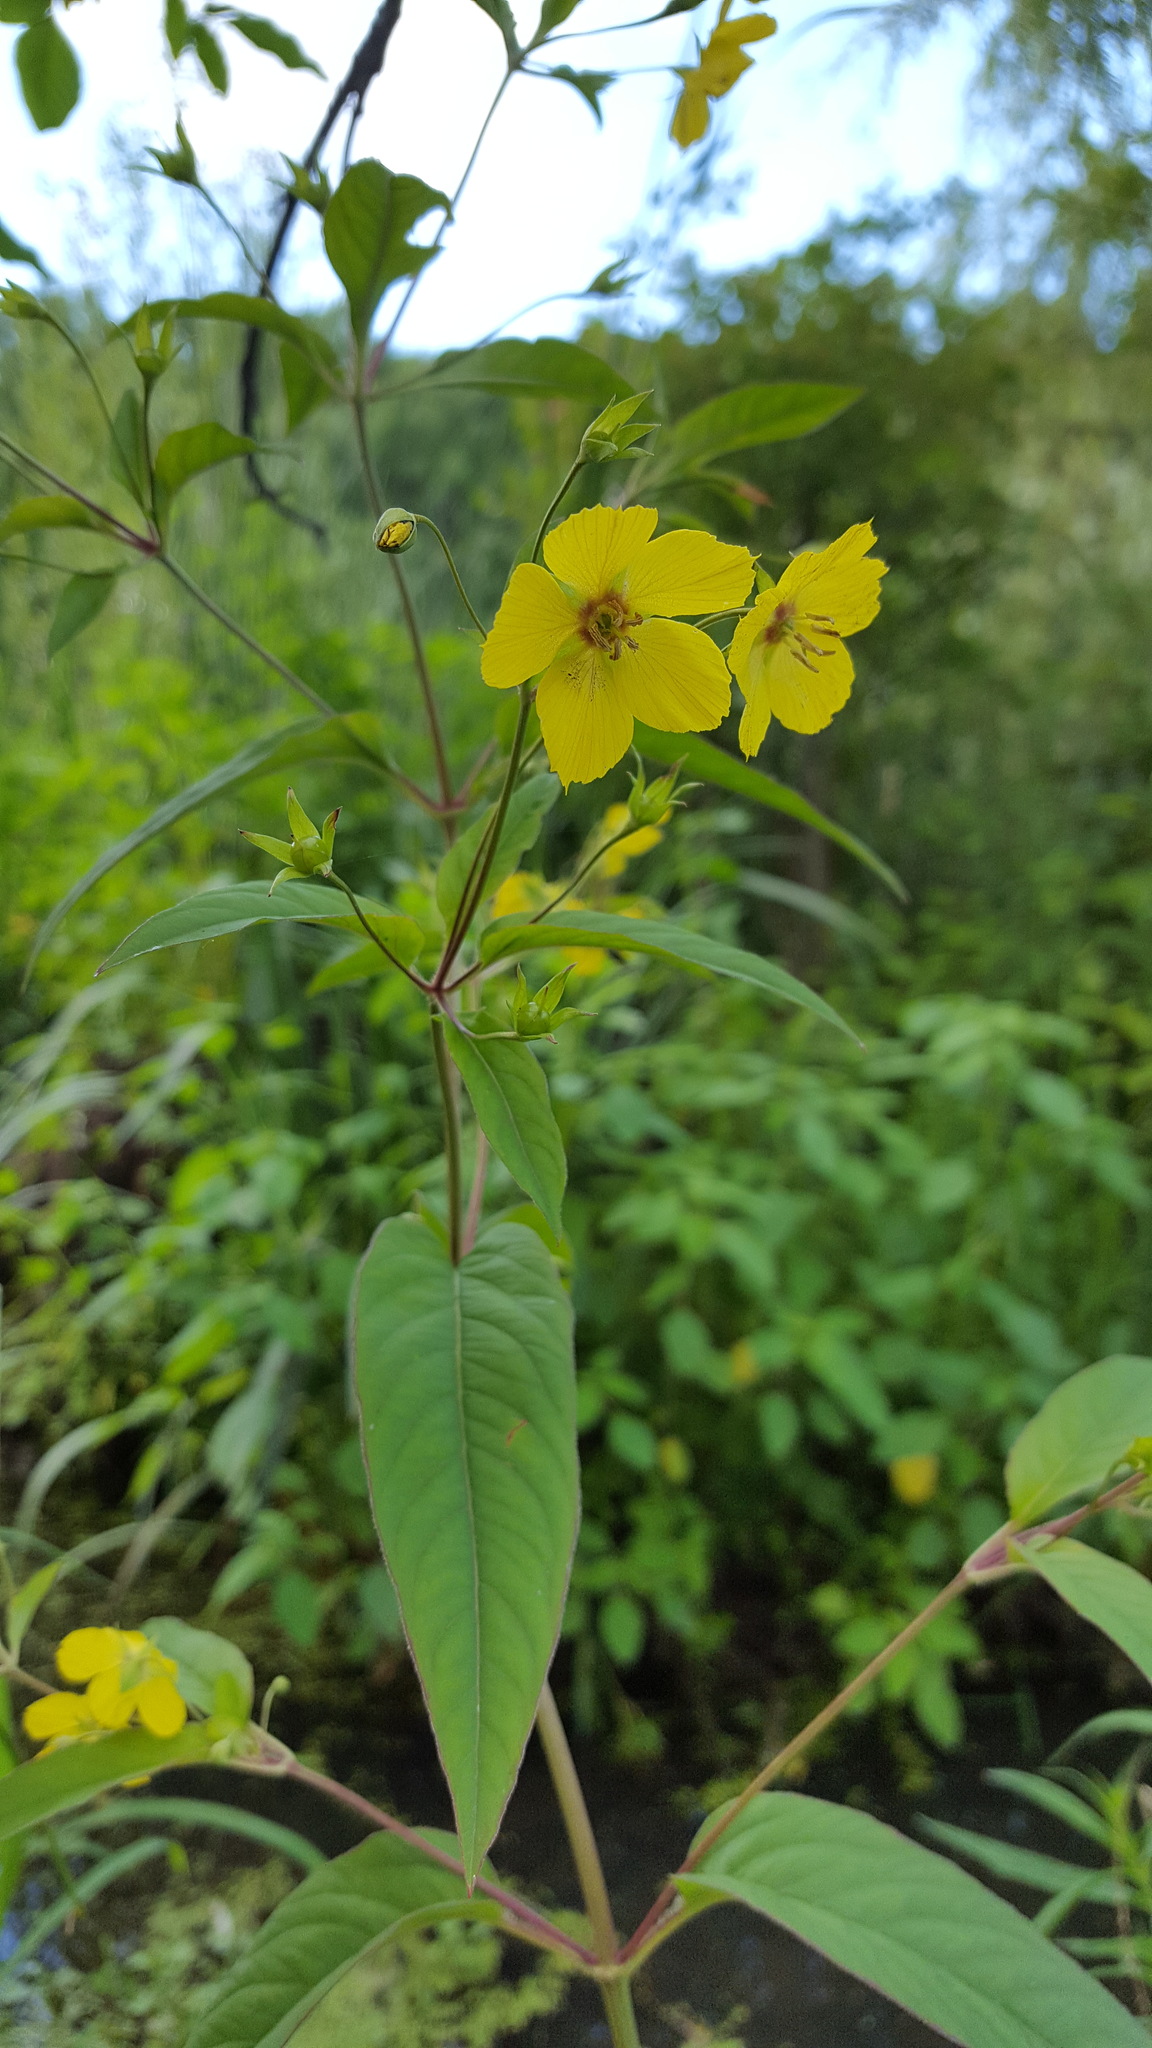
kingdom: Plantae
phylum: Tracheophyta
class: Magnoliopsida
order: Ericales
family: Primulaceae
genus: Lysimachia
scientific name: Lysimachia ciliata
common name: Fringed loosestrife
